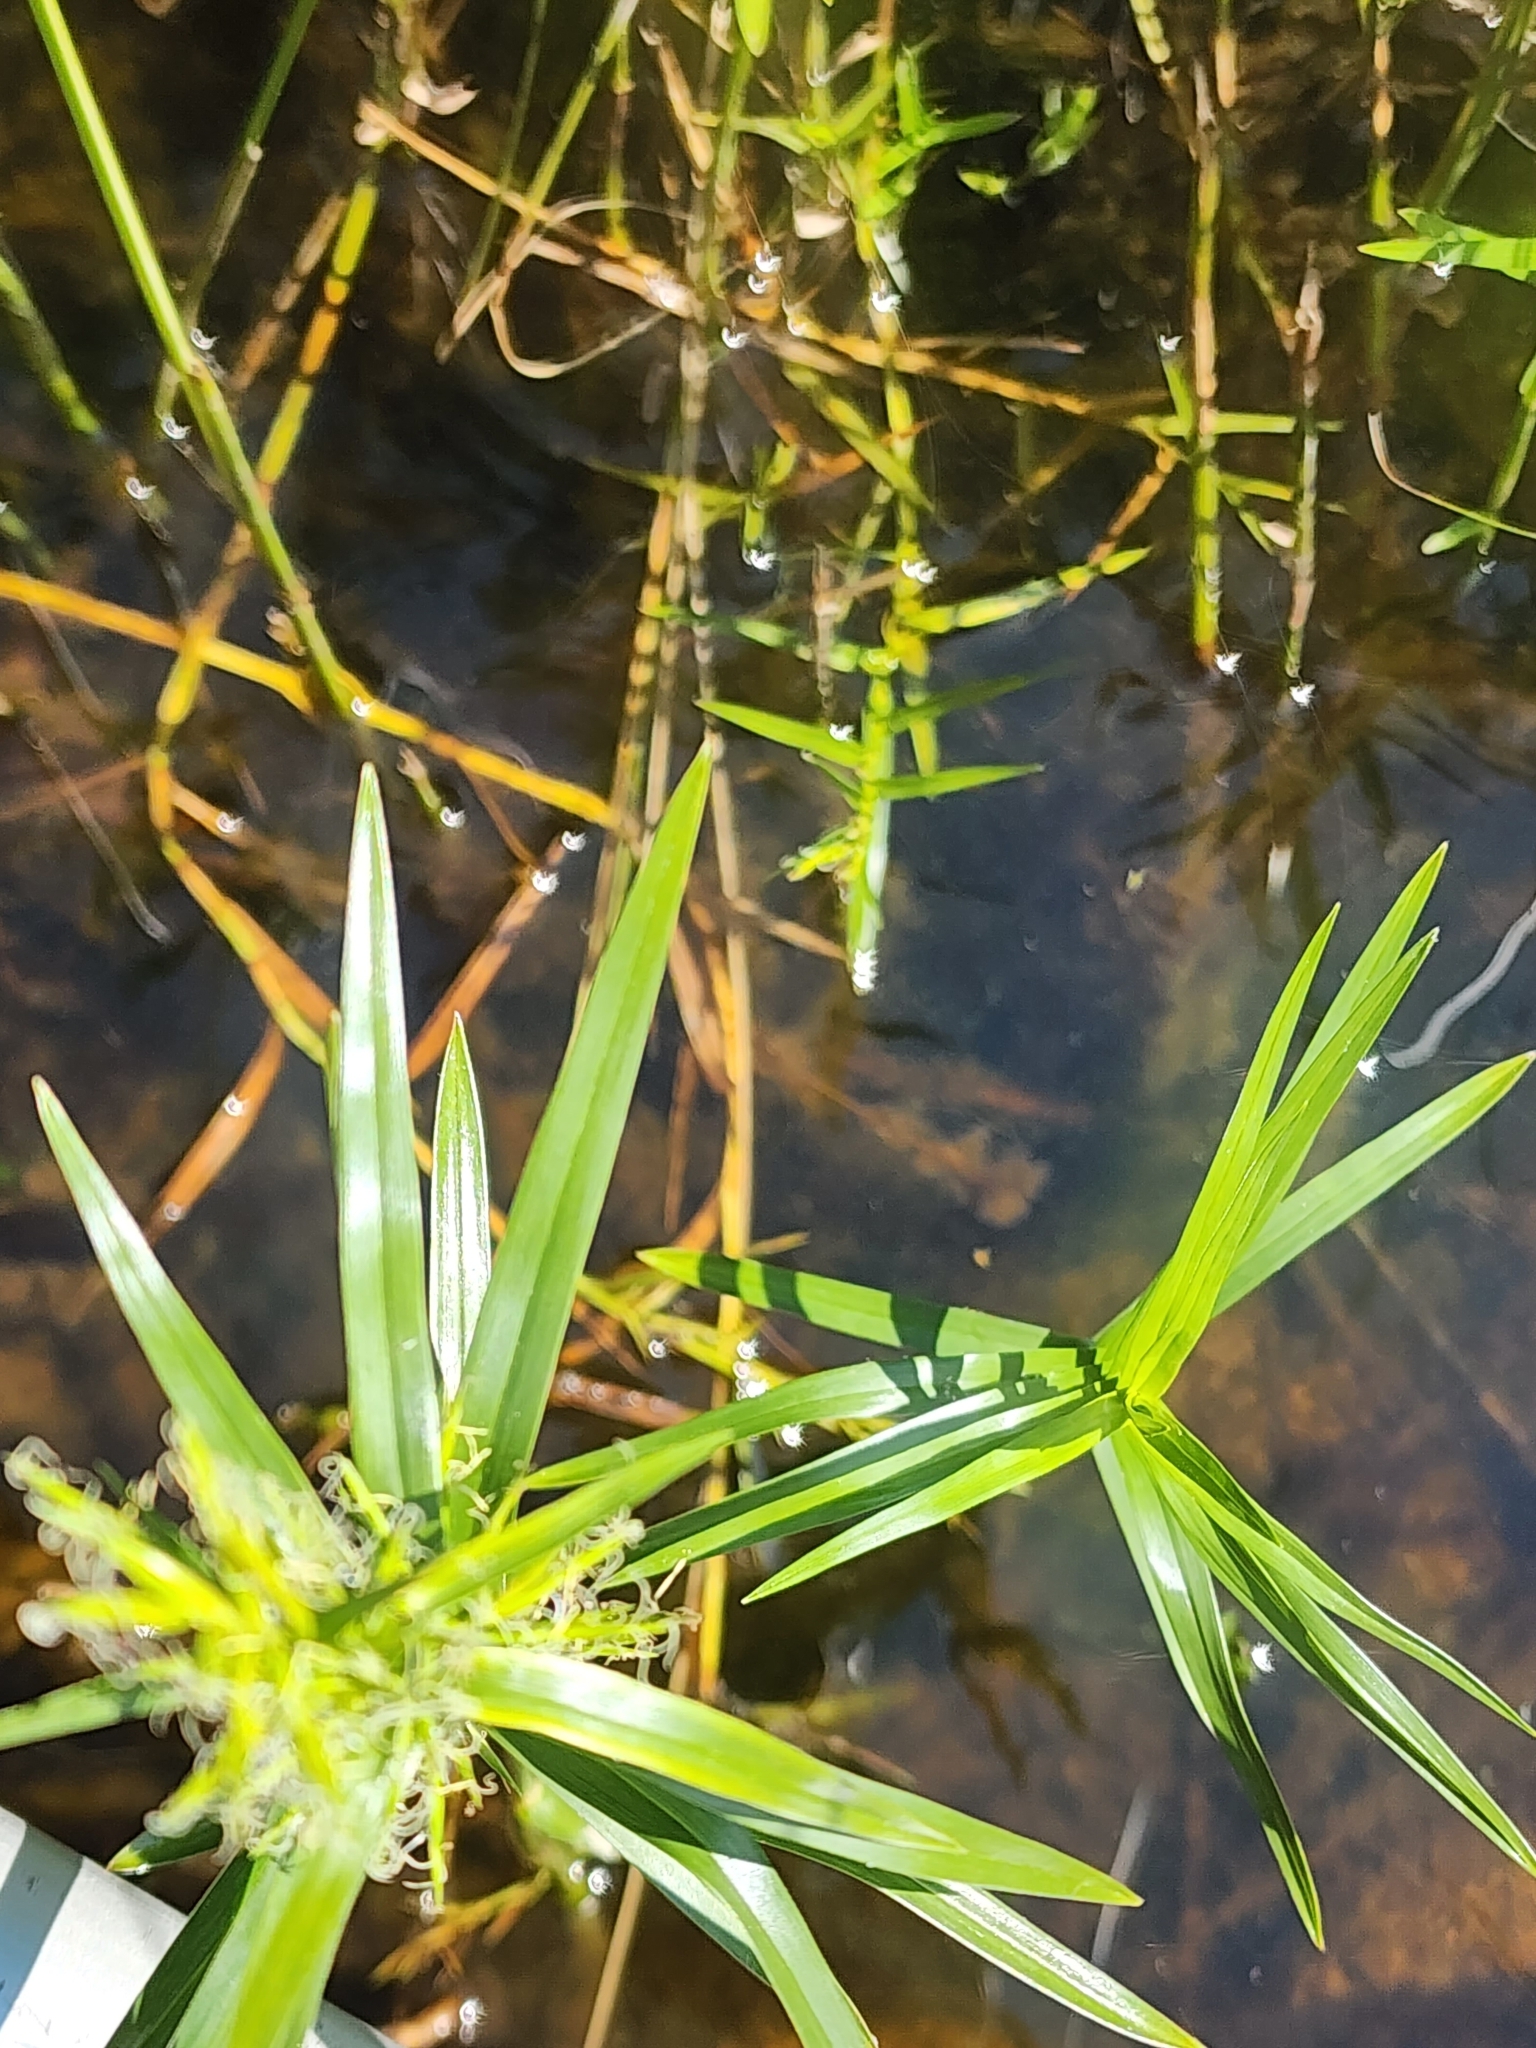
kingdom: Plantae
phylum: Tracheophyta
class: Liliopsida
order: Poales
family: Cyperaceae
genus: Dulichium
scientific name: Dulichium arundinaceum
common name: Three-way sedge
